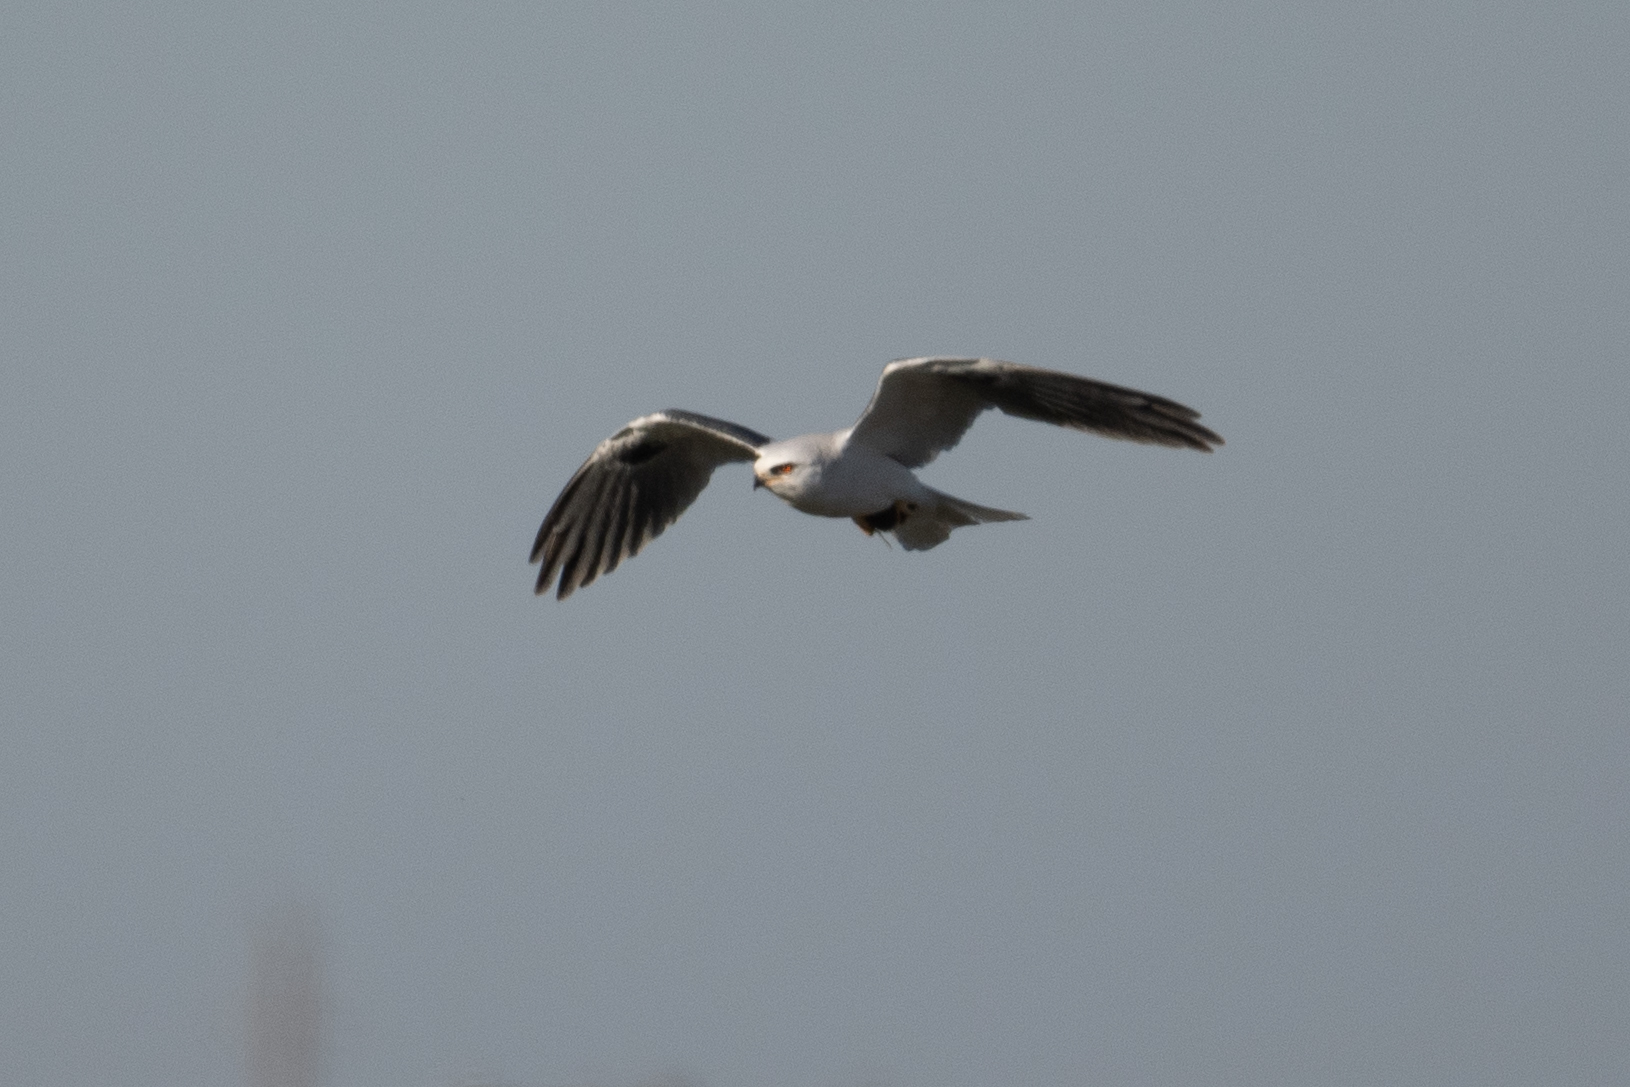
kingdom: Animalia
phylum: Chordata
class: Aves
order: Accipitriformes
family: Accipitridae
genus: Elanus
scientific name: Elanus leucurus
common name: White-tailed kite
